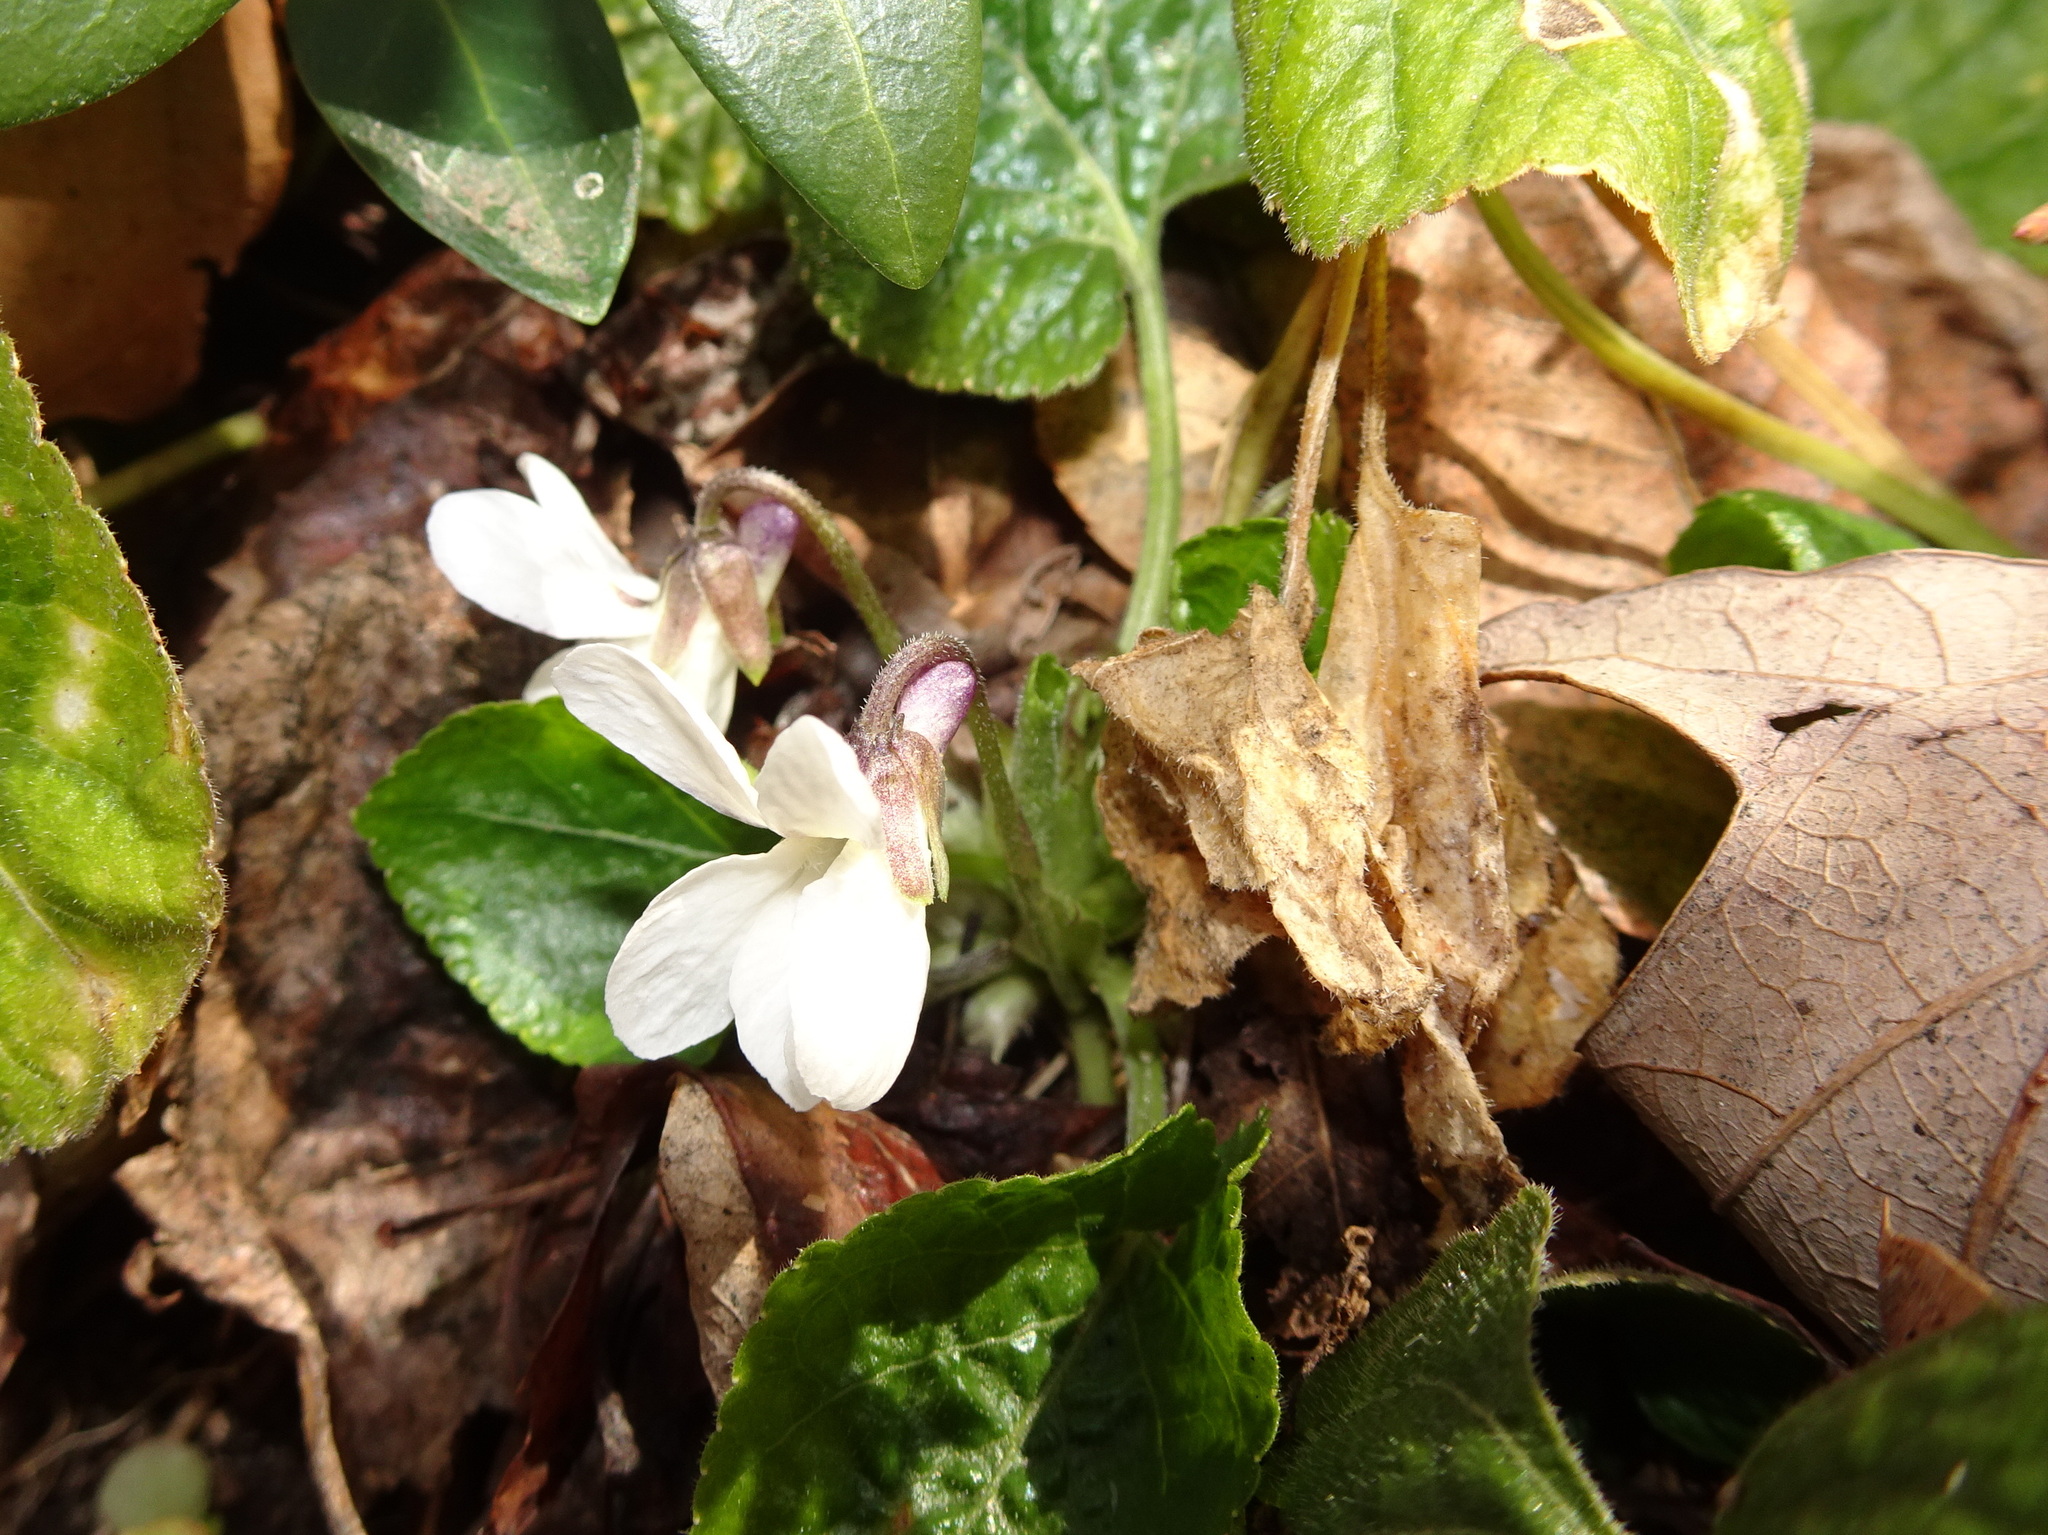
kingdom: Plantae
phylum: Tracheophyta
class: Magnoliopsida
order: Malpighiales
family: Violaceae
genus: Viola
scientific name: Viola odorata
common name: Sweet violet
